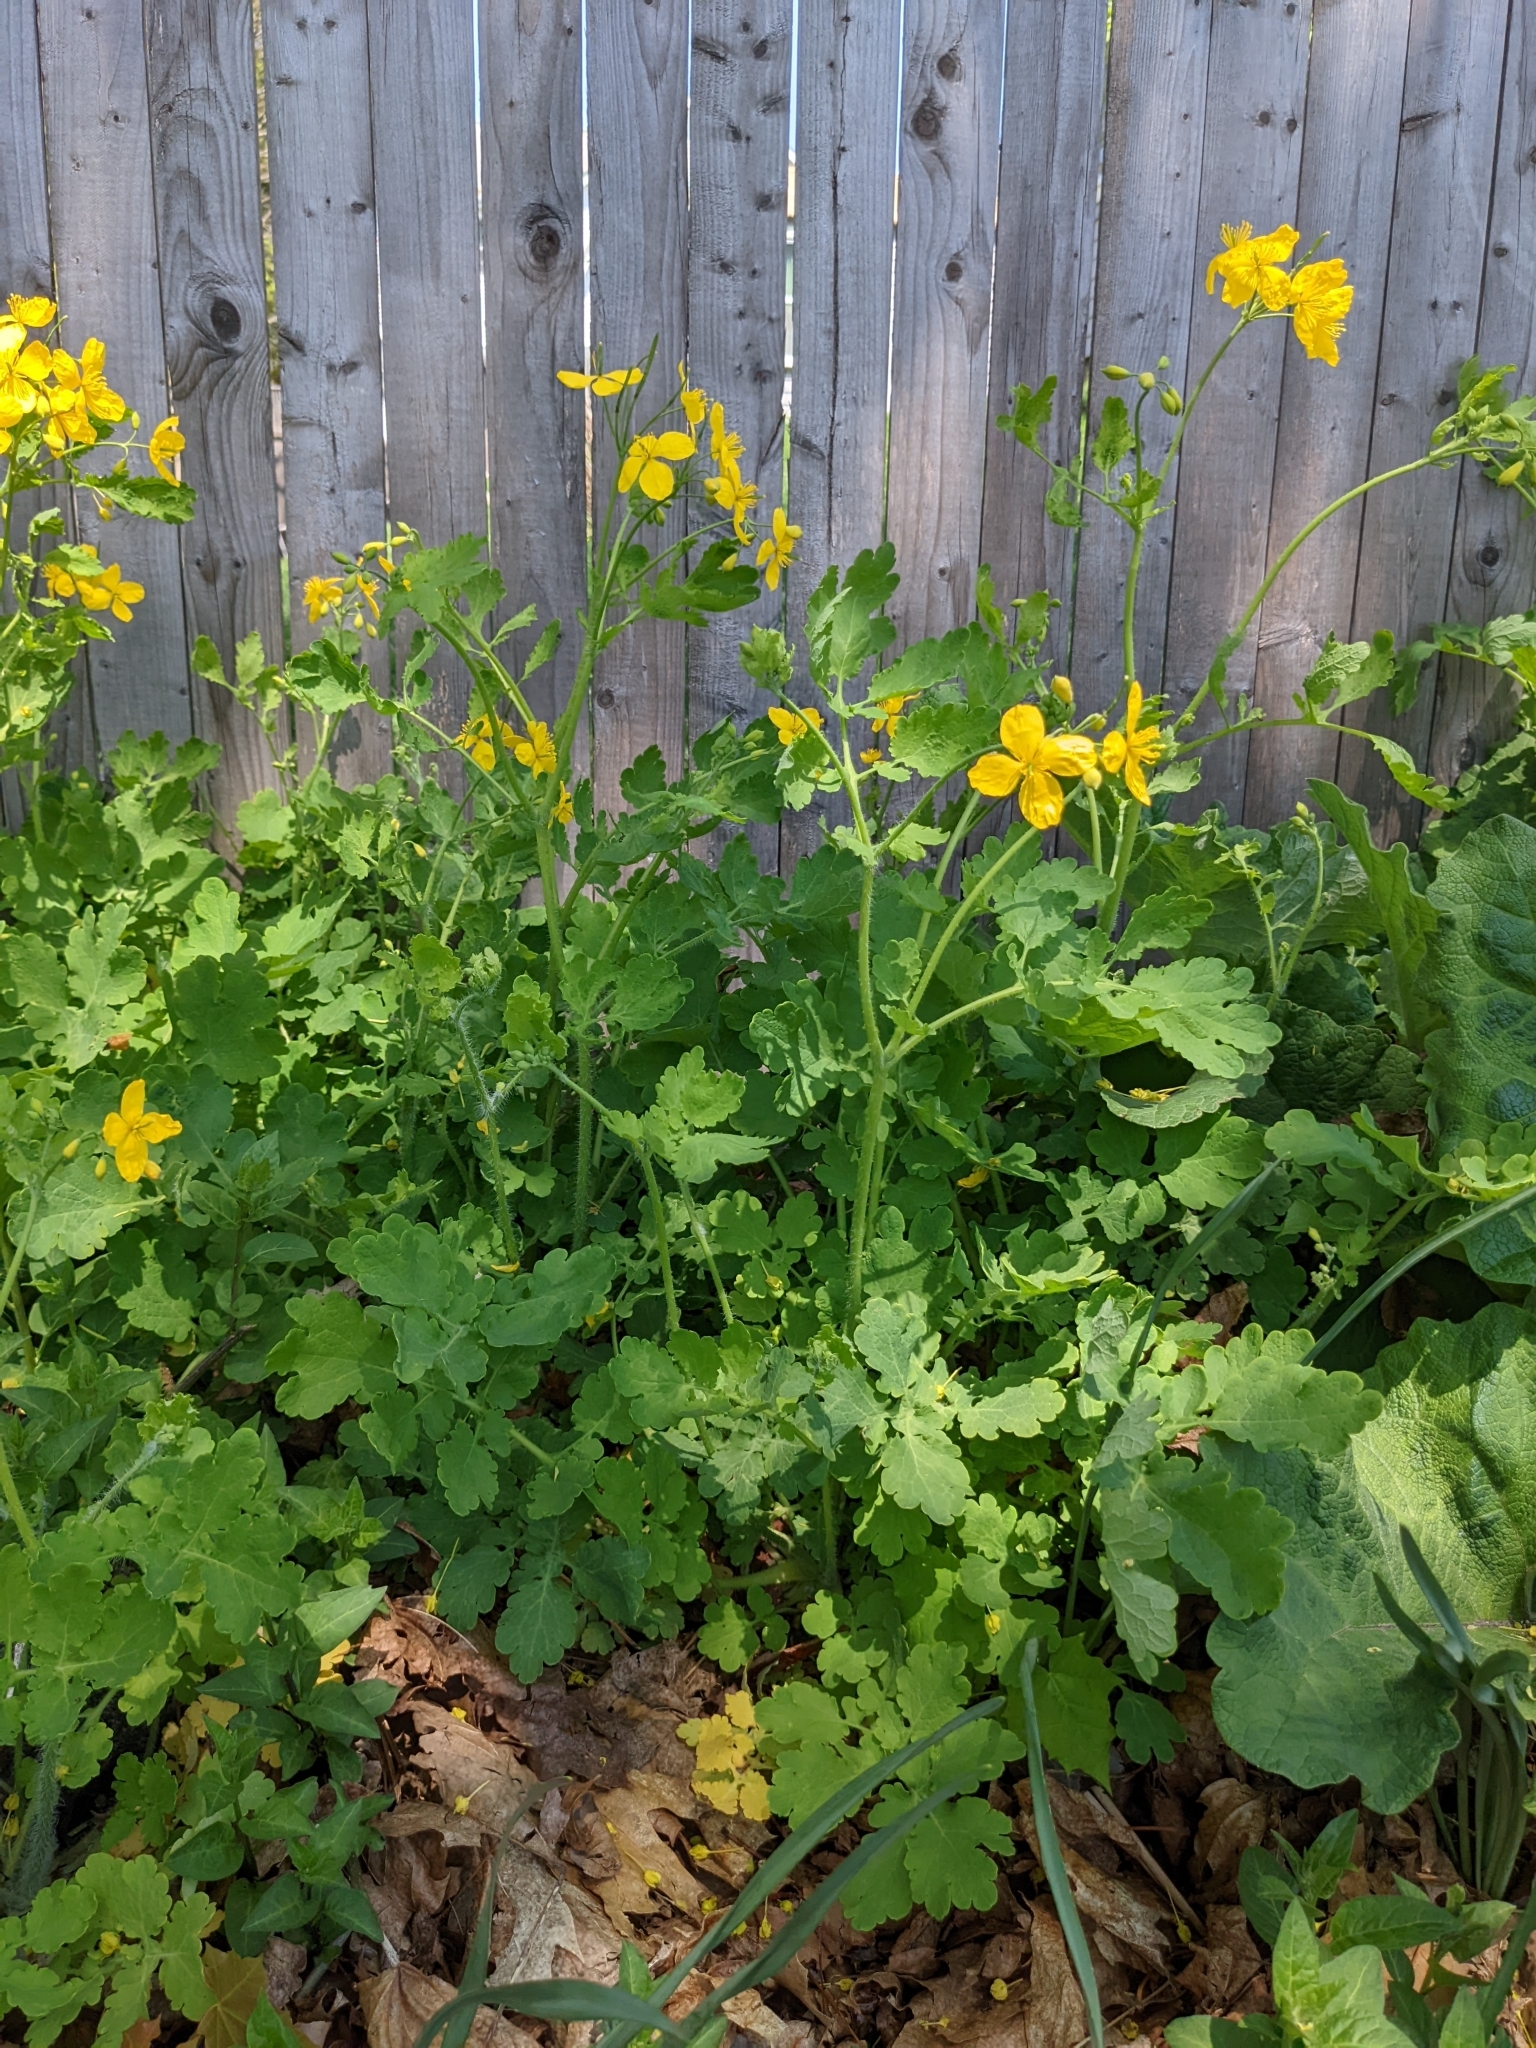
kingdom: Plantae
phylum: Tracheophyta
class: Magnoliopsida
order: Ranunculales
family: Papaveraceae
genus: Chelidonium
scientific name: Chelidonium majus
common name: Greater celandine
